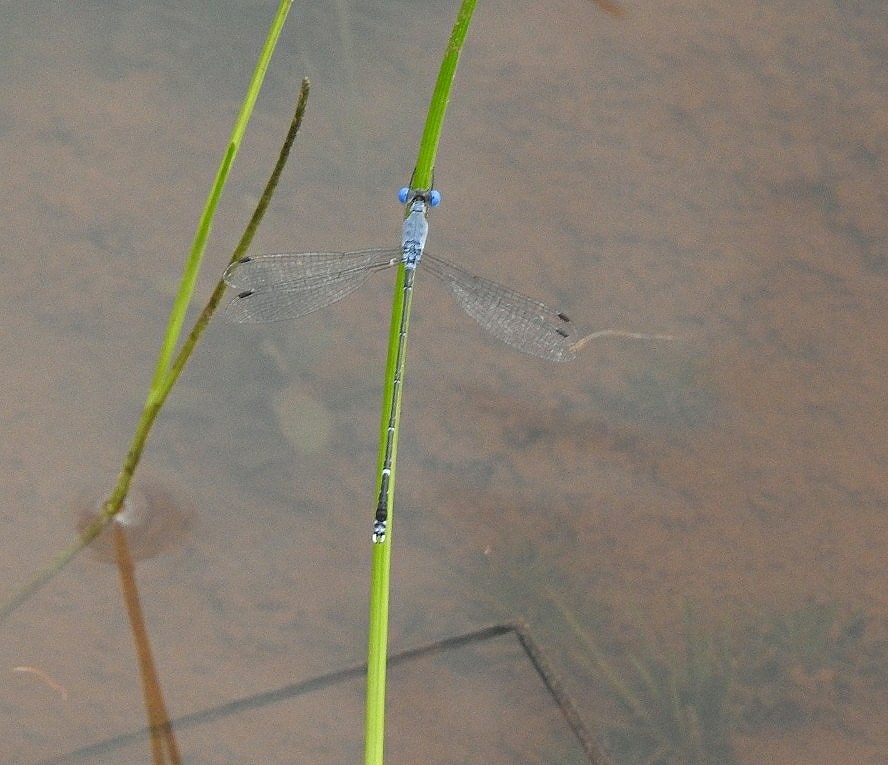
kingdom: Animalia
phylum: Arthropoda
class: Insecta
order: Odonata
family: Lestidae
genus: Lestes
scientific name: Lestes praemorsus
